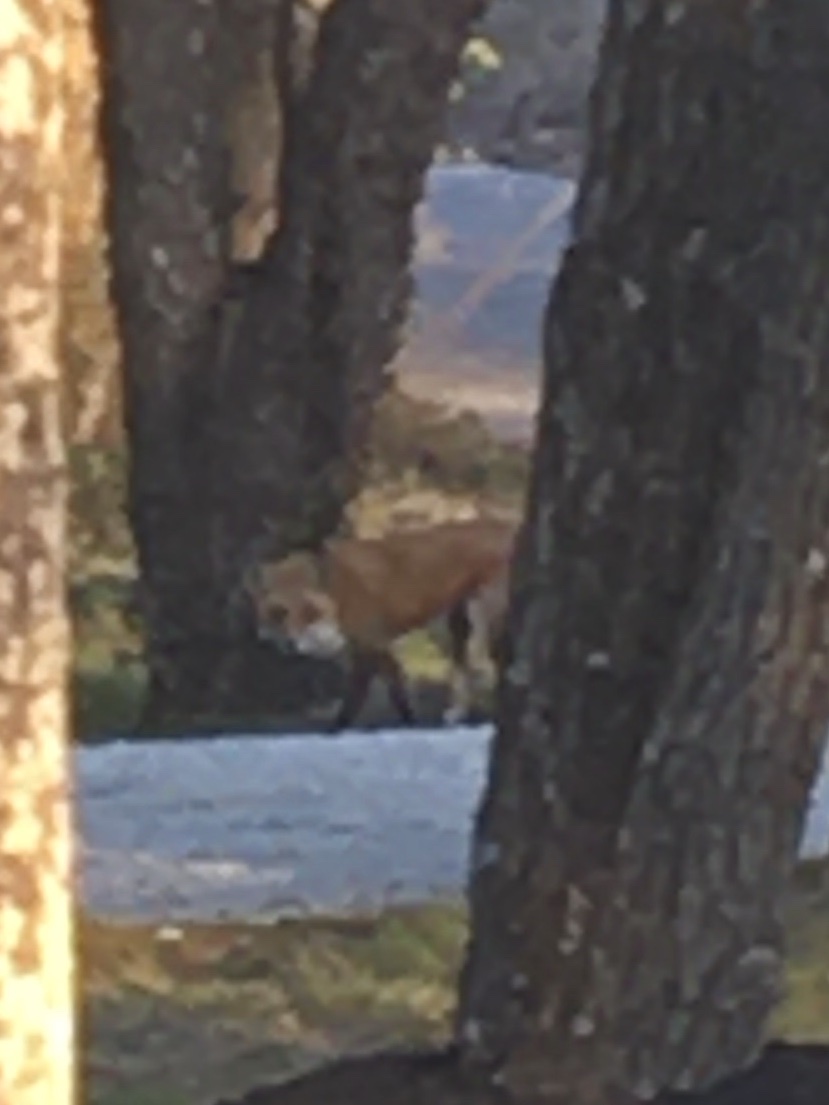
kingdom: Animalia
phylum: Chordata
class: Mammalia
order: Carnivora
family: Canidae
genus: Vulpes
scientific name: Vulpes vulpes
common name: Red fox
